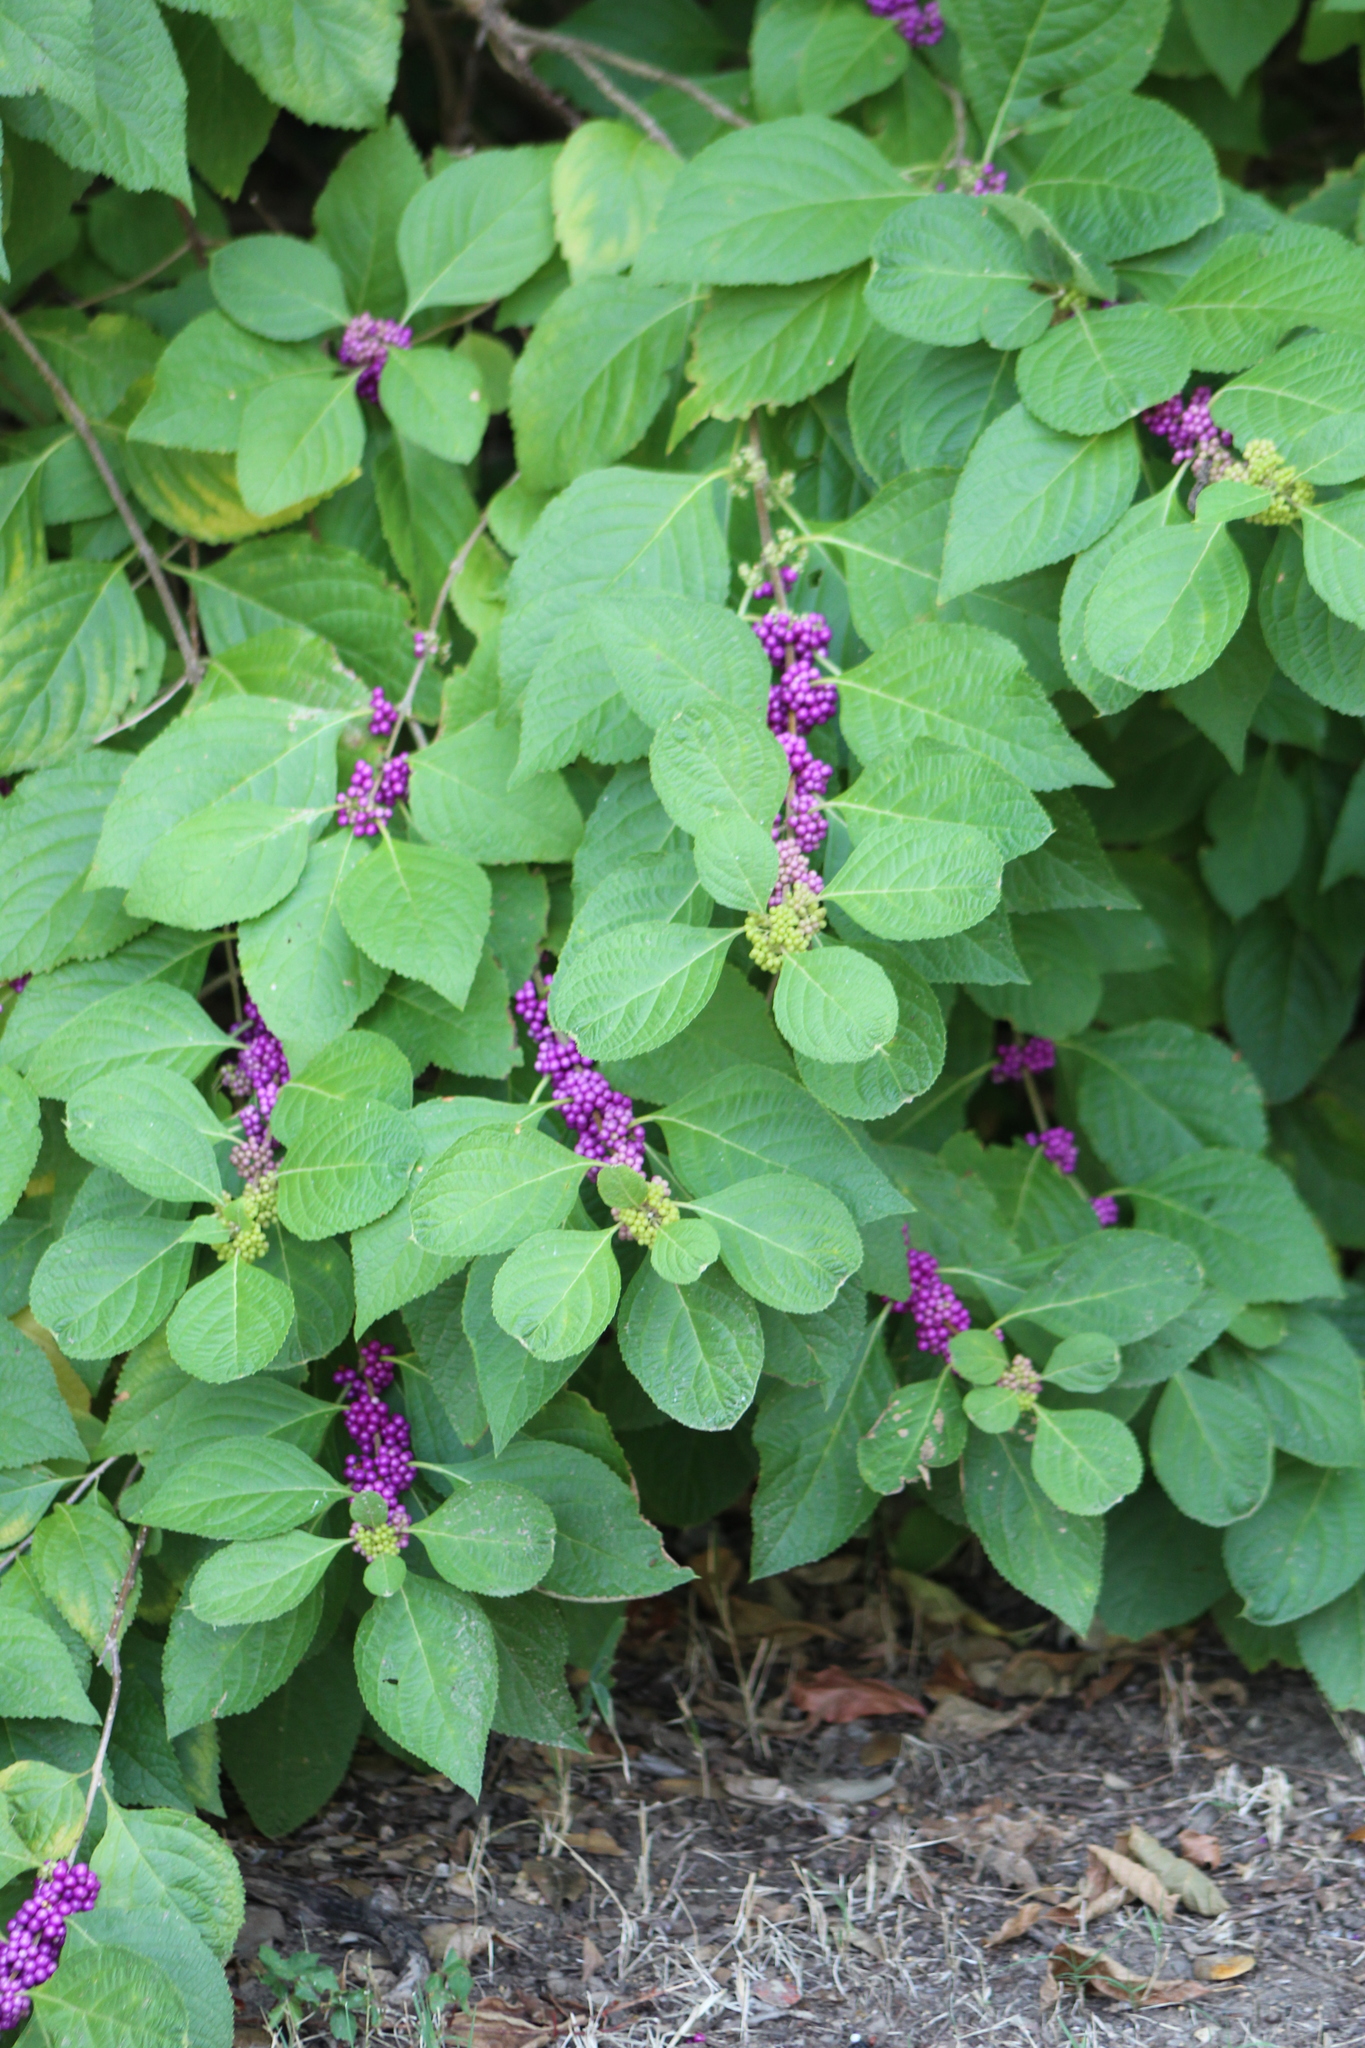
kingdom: Plantae
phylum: Tracheophyta
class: Magnoliopsida
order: Lamiales
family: Lamiaceae
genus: Callicarpa
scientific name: Callicarpa americana
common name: American beautyberry
